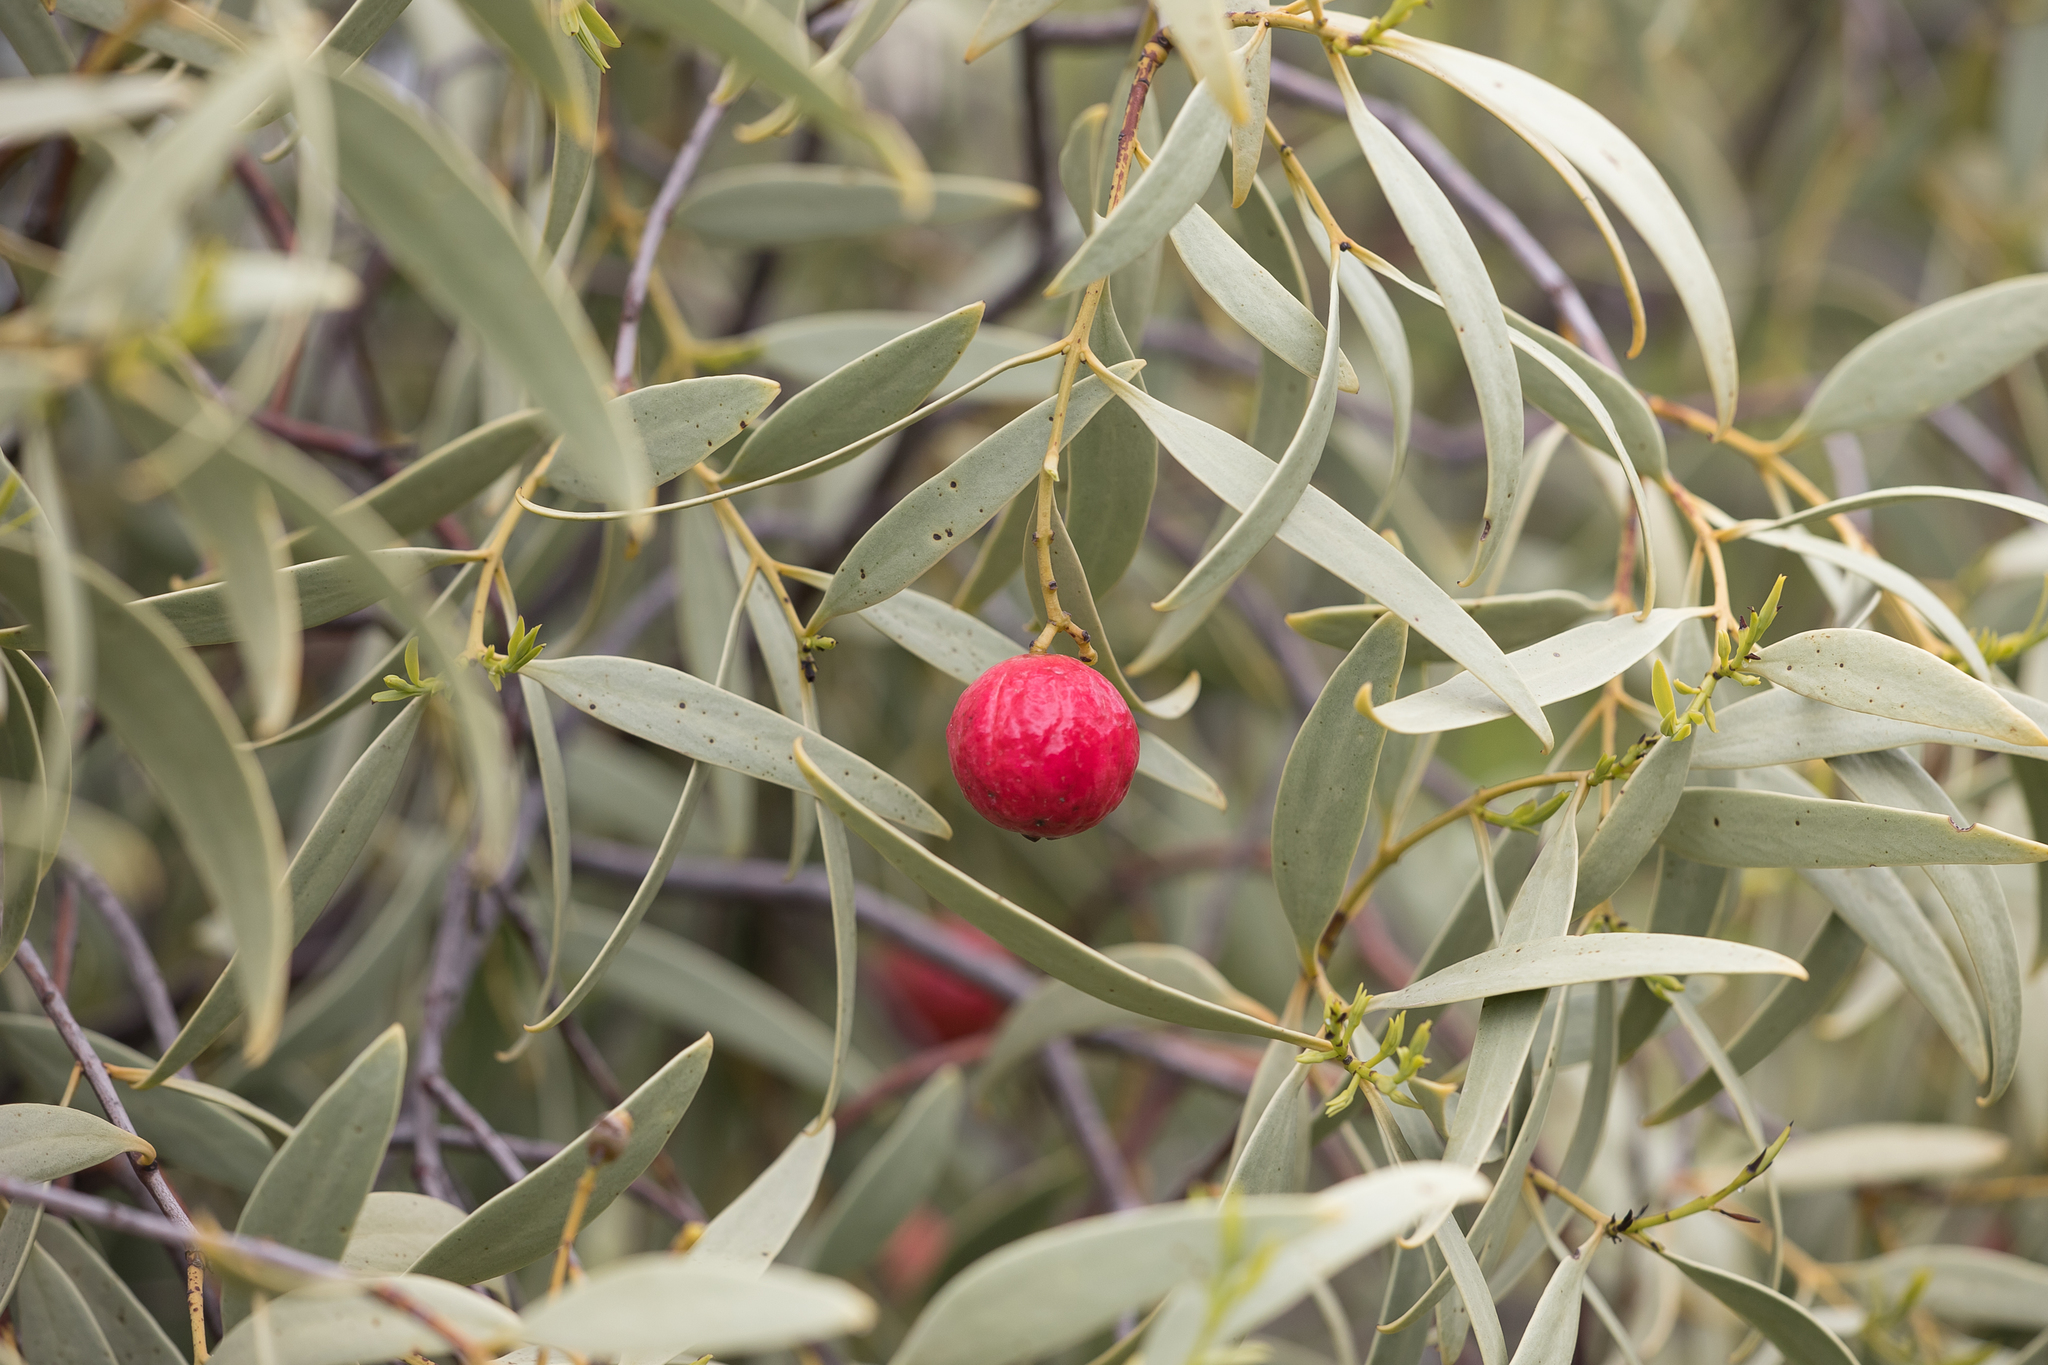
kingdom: Plantae
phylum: Tracheophyta
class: Magnoliopsida
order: Santalales
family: Santalaceae
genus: Santalum
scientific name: Santalum acuminatum
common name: Sweet quandong
